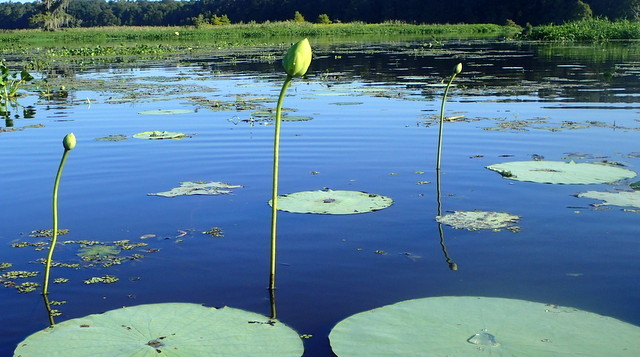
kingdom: Plantae
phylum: Tracheophyta
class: Magnoliopsida
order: Proteales
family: Nelumbonaceae
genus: Nelumbo
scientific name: Nelumbo lutea
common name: American lotus
